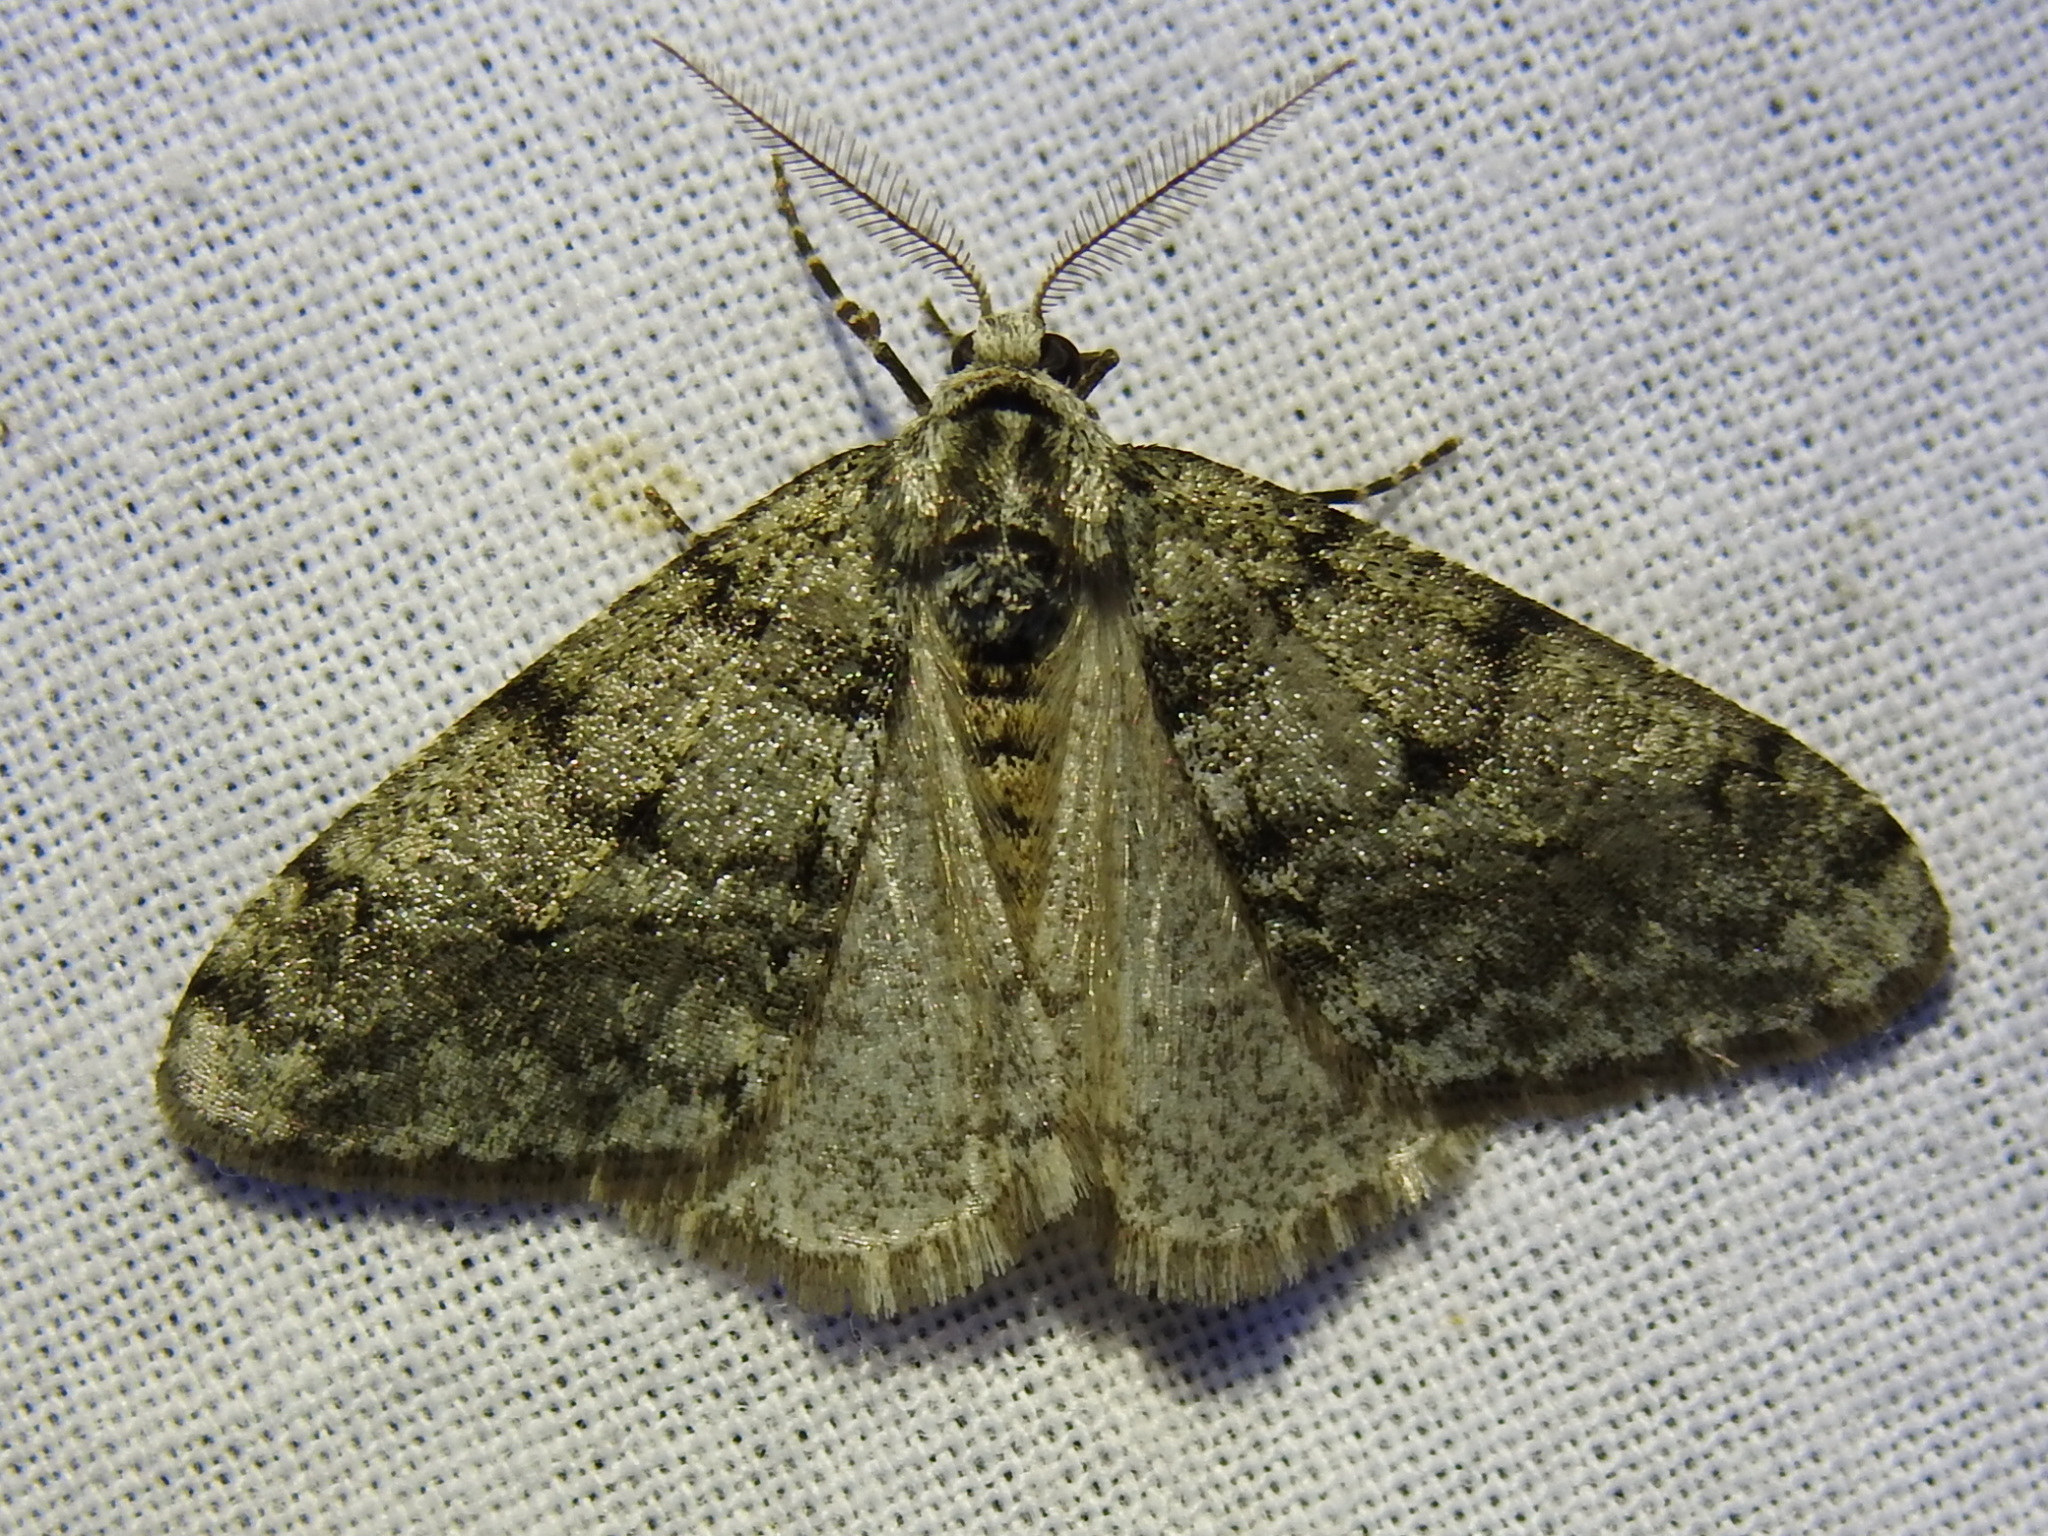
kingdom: Animalia
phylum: Arthropoda
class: Insecta
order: Lepidoptera
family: Geometridae
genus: Phigalia
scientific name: Phigalia strigataria
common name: Small phigalia
